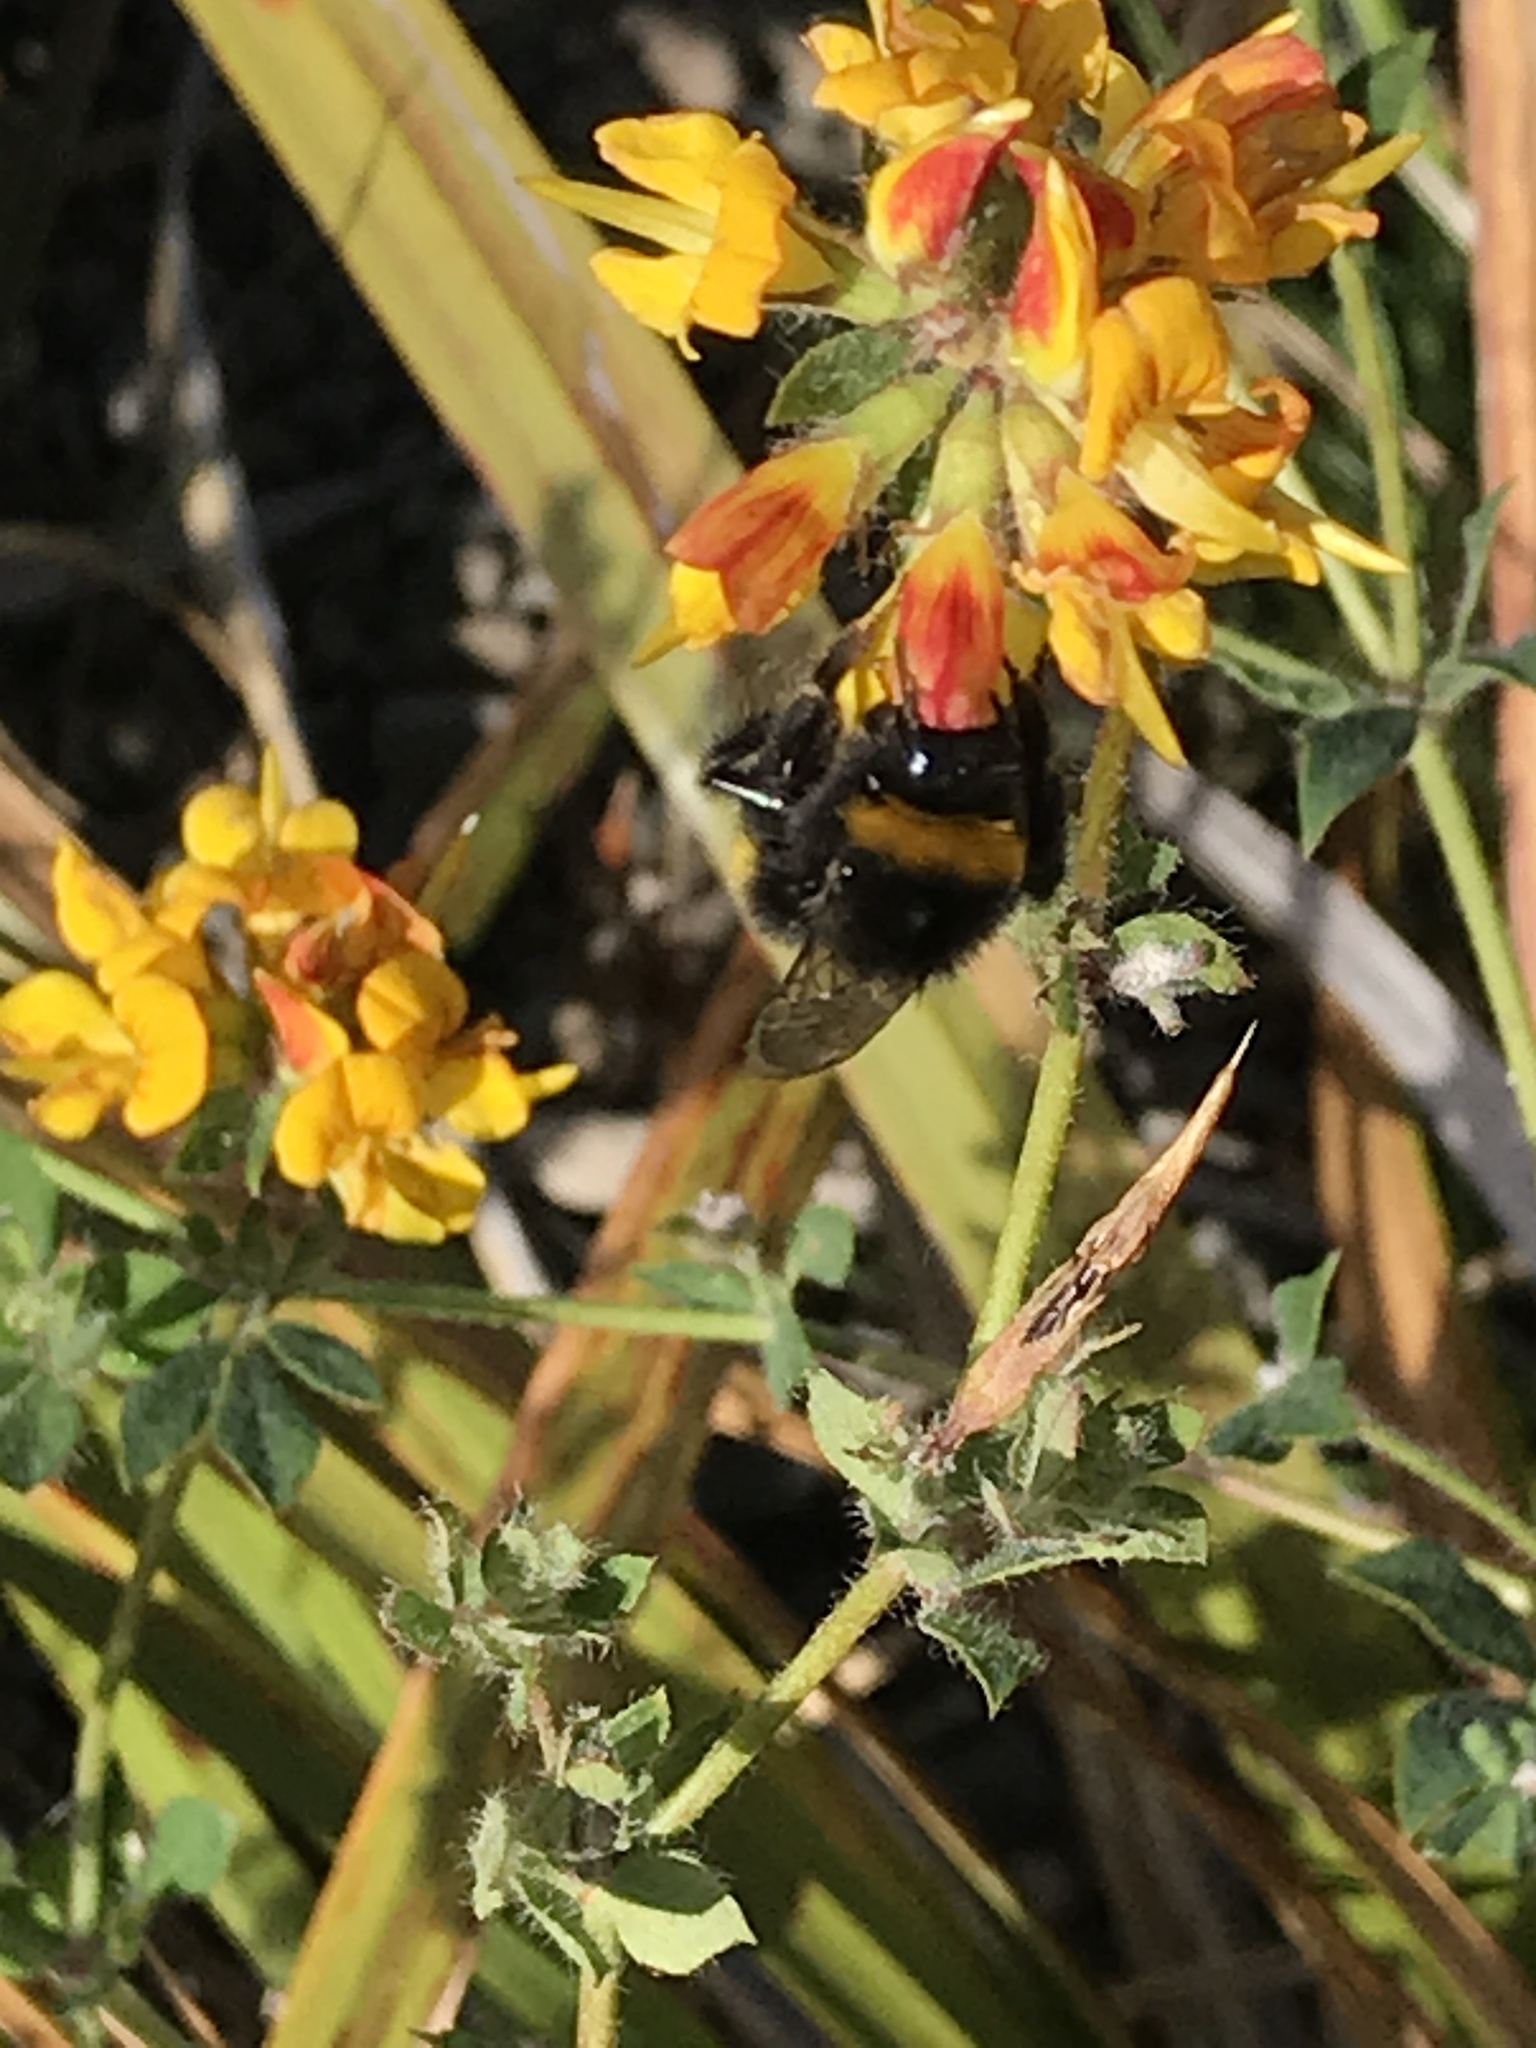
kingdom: Animalia
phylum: Arthropoda
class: Insecta
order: Hymenoptera
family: Apidae
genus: Bombus
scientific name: Bombus terrestris
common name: Buff-tailed bumblebee
